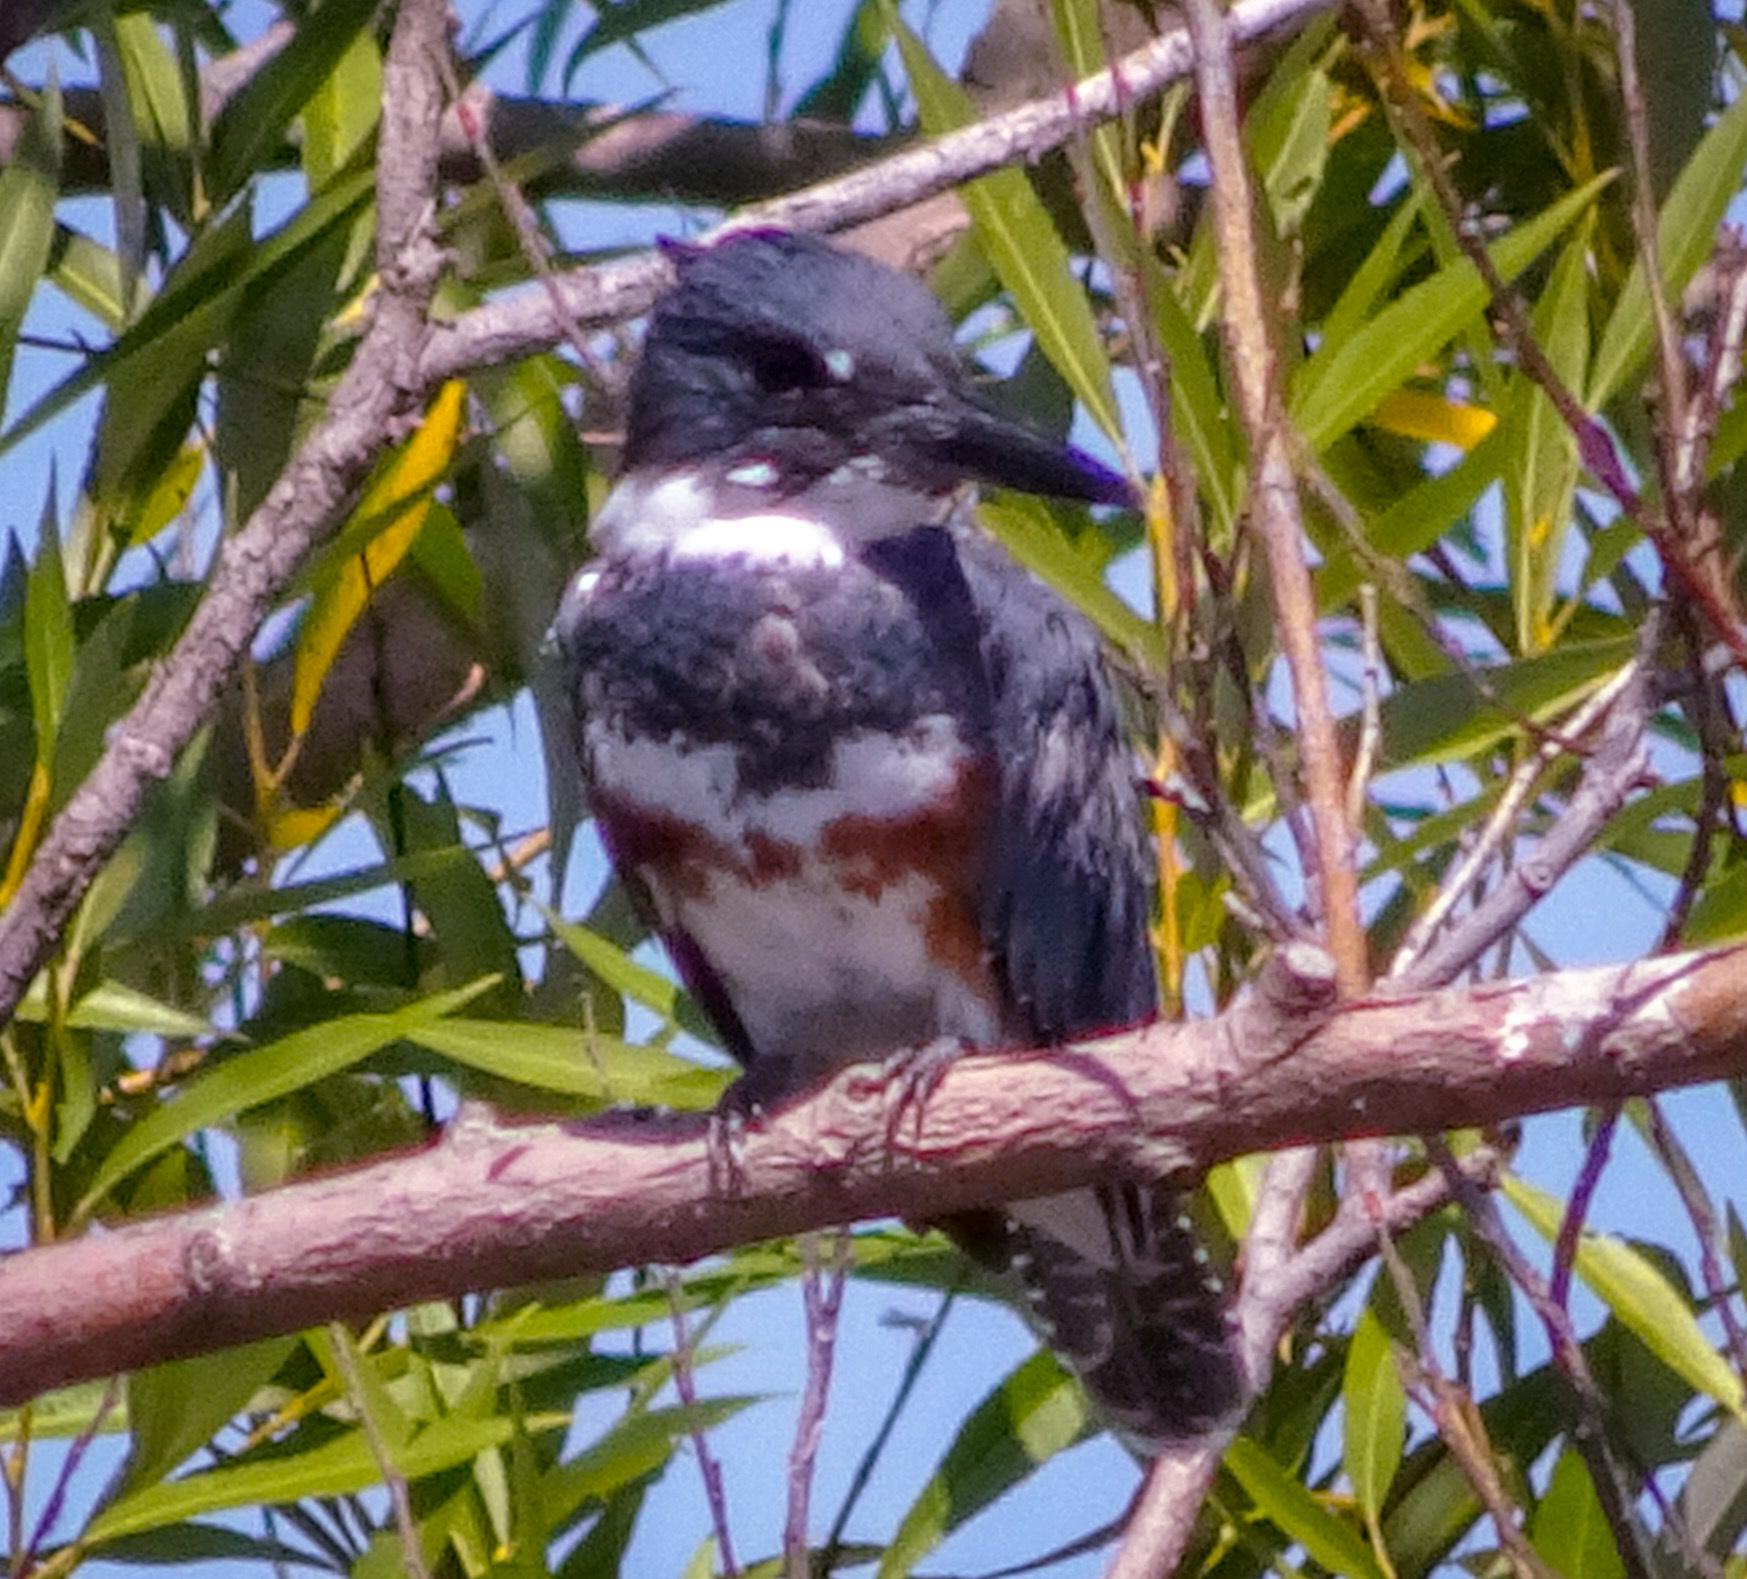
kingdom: Animalia
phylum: Chordata
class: Aves
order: Coraciiformes
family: Alcedinidae
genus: Megaceryle
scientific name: Megaceryle alcyon
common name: Belted kingfisher
